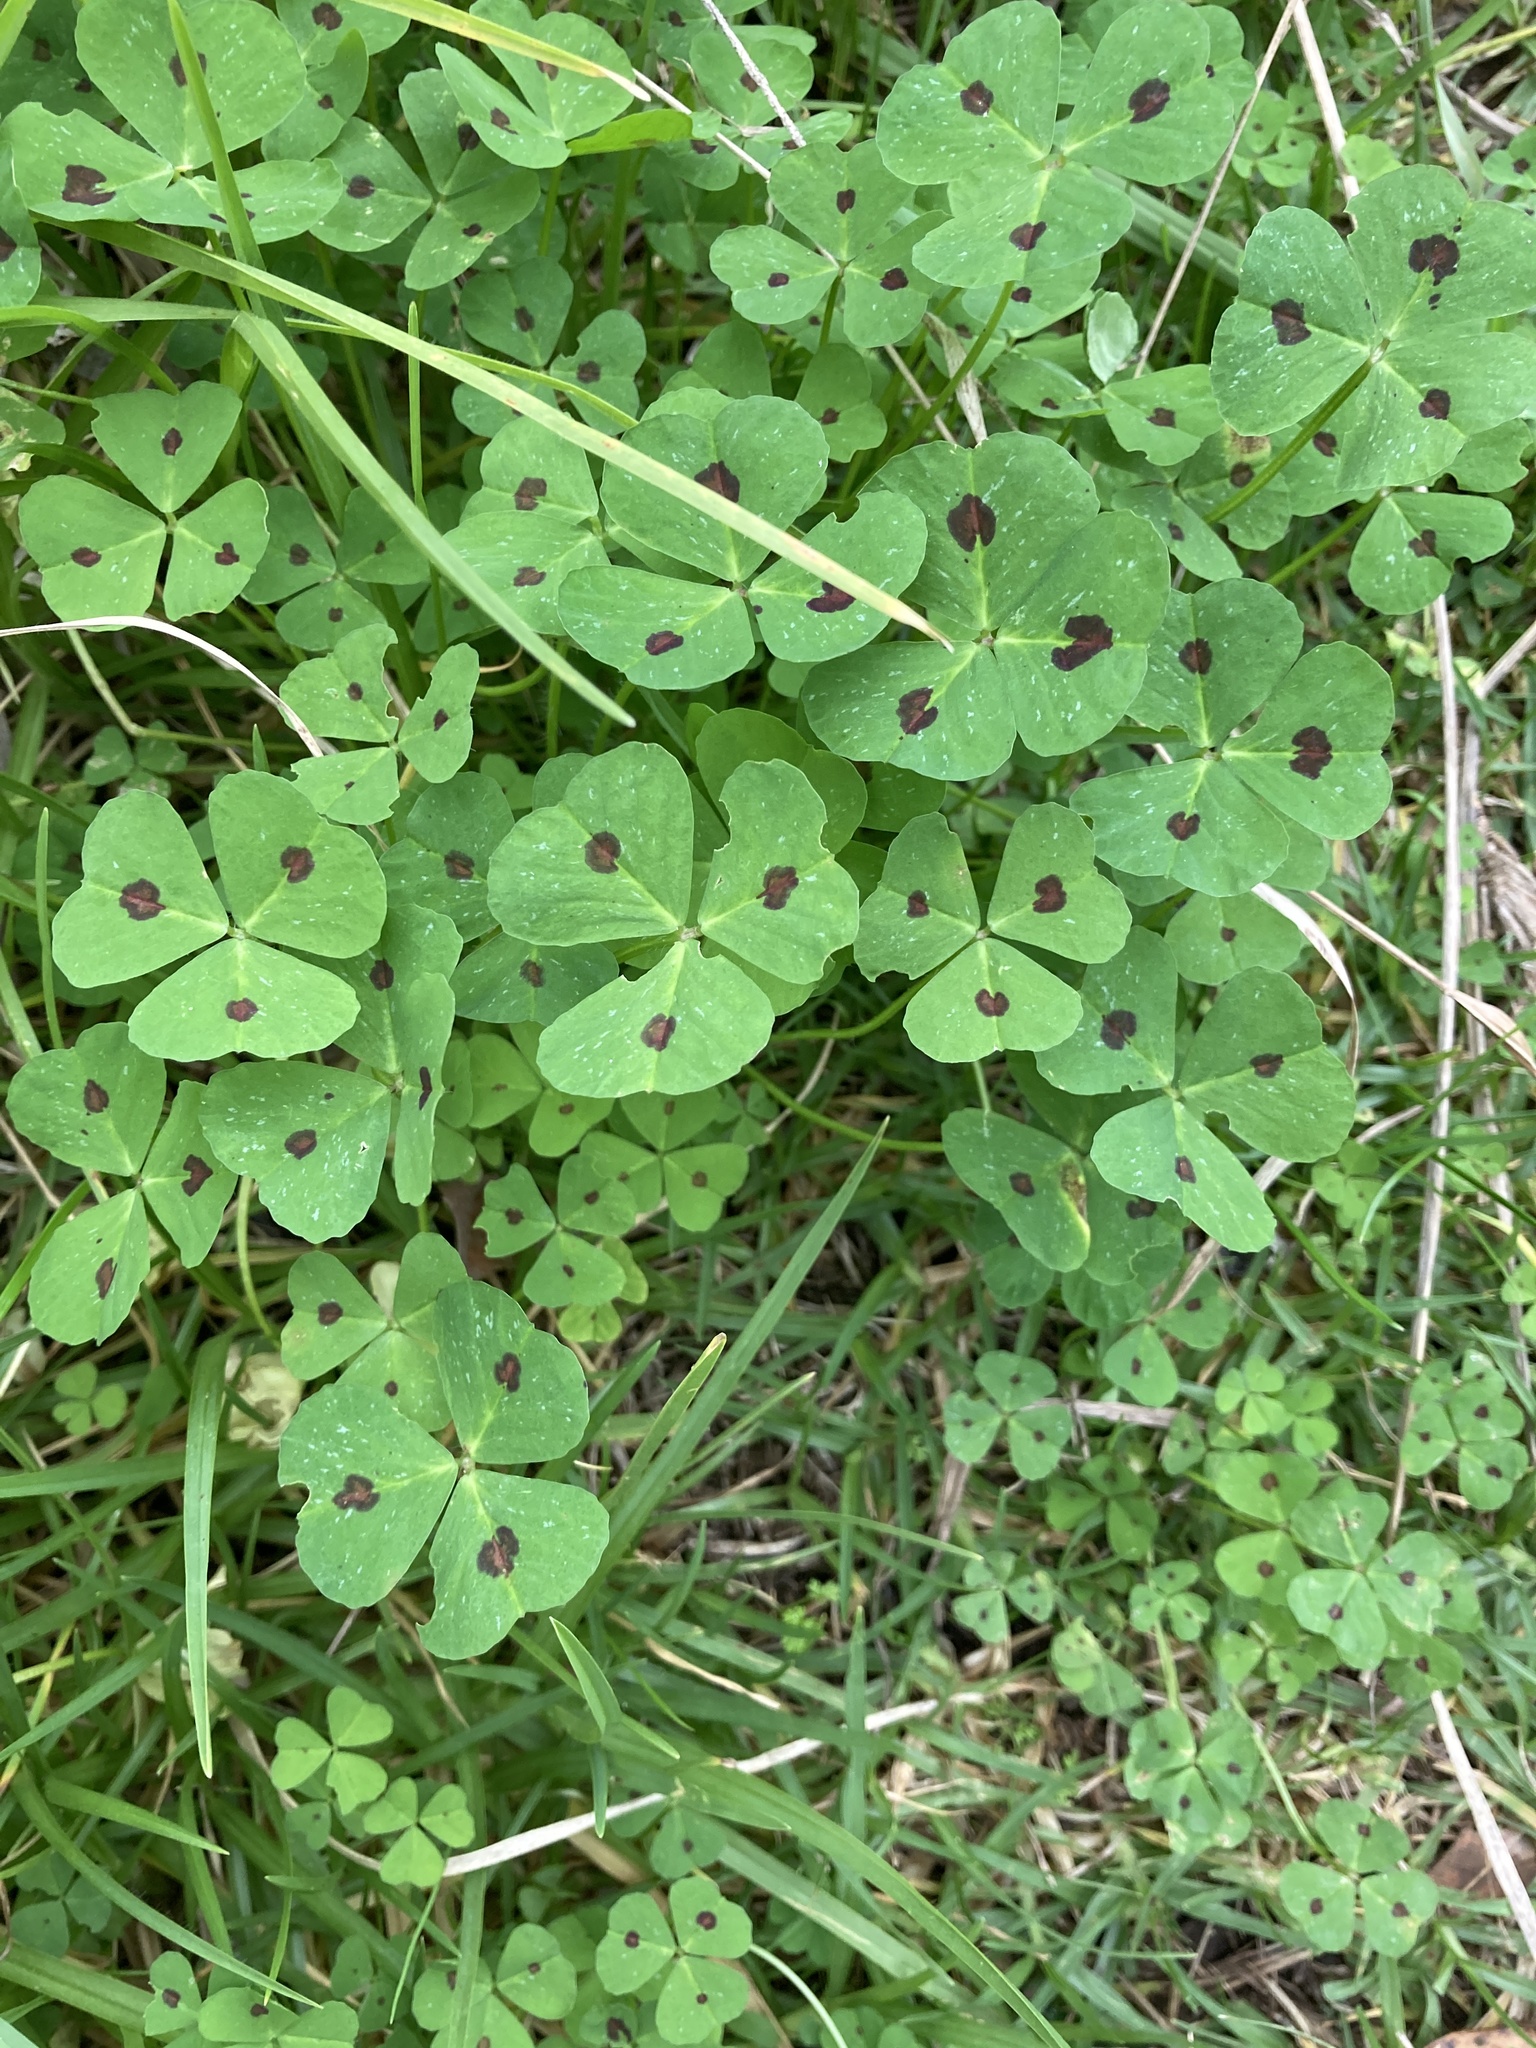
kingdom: Plantae
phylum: Tracheophyta
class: Magnoliopsida
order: Fabales
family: Fabaceae
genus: Medicago
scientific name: Medicago arabica
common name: Spotted medick
